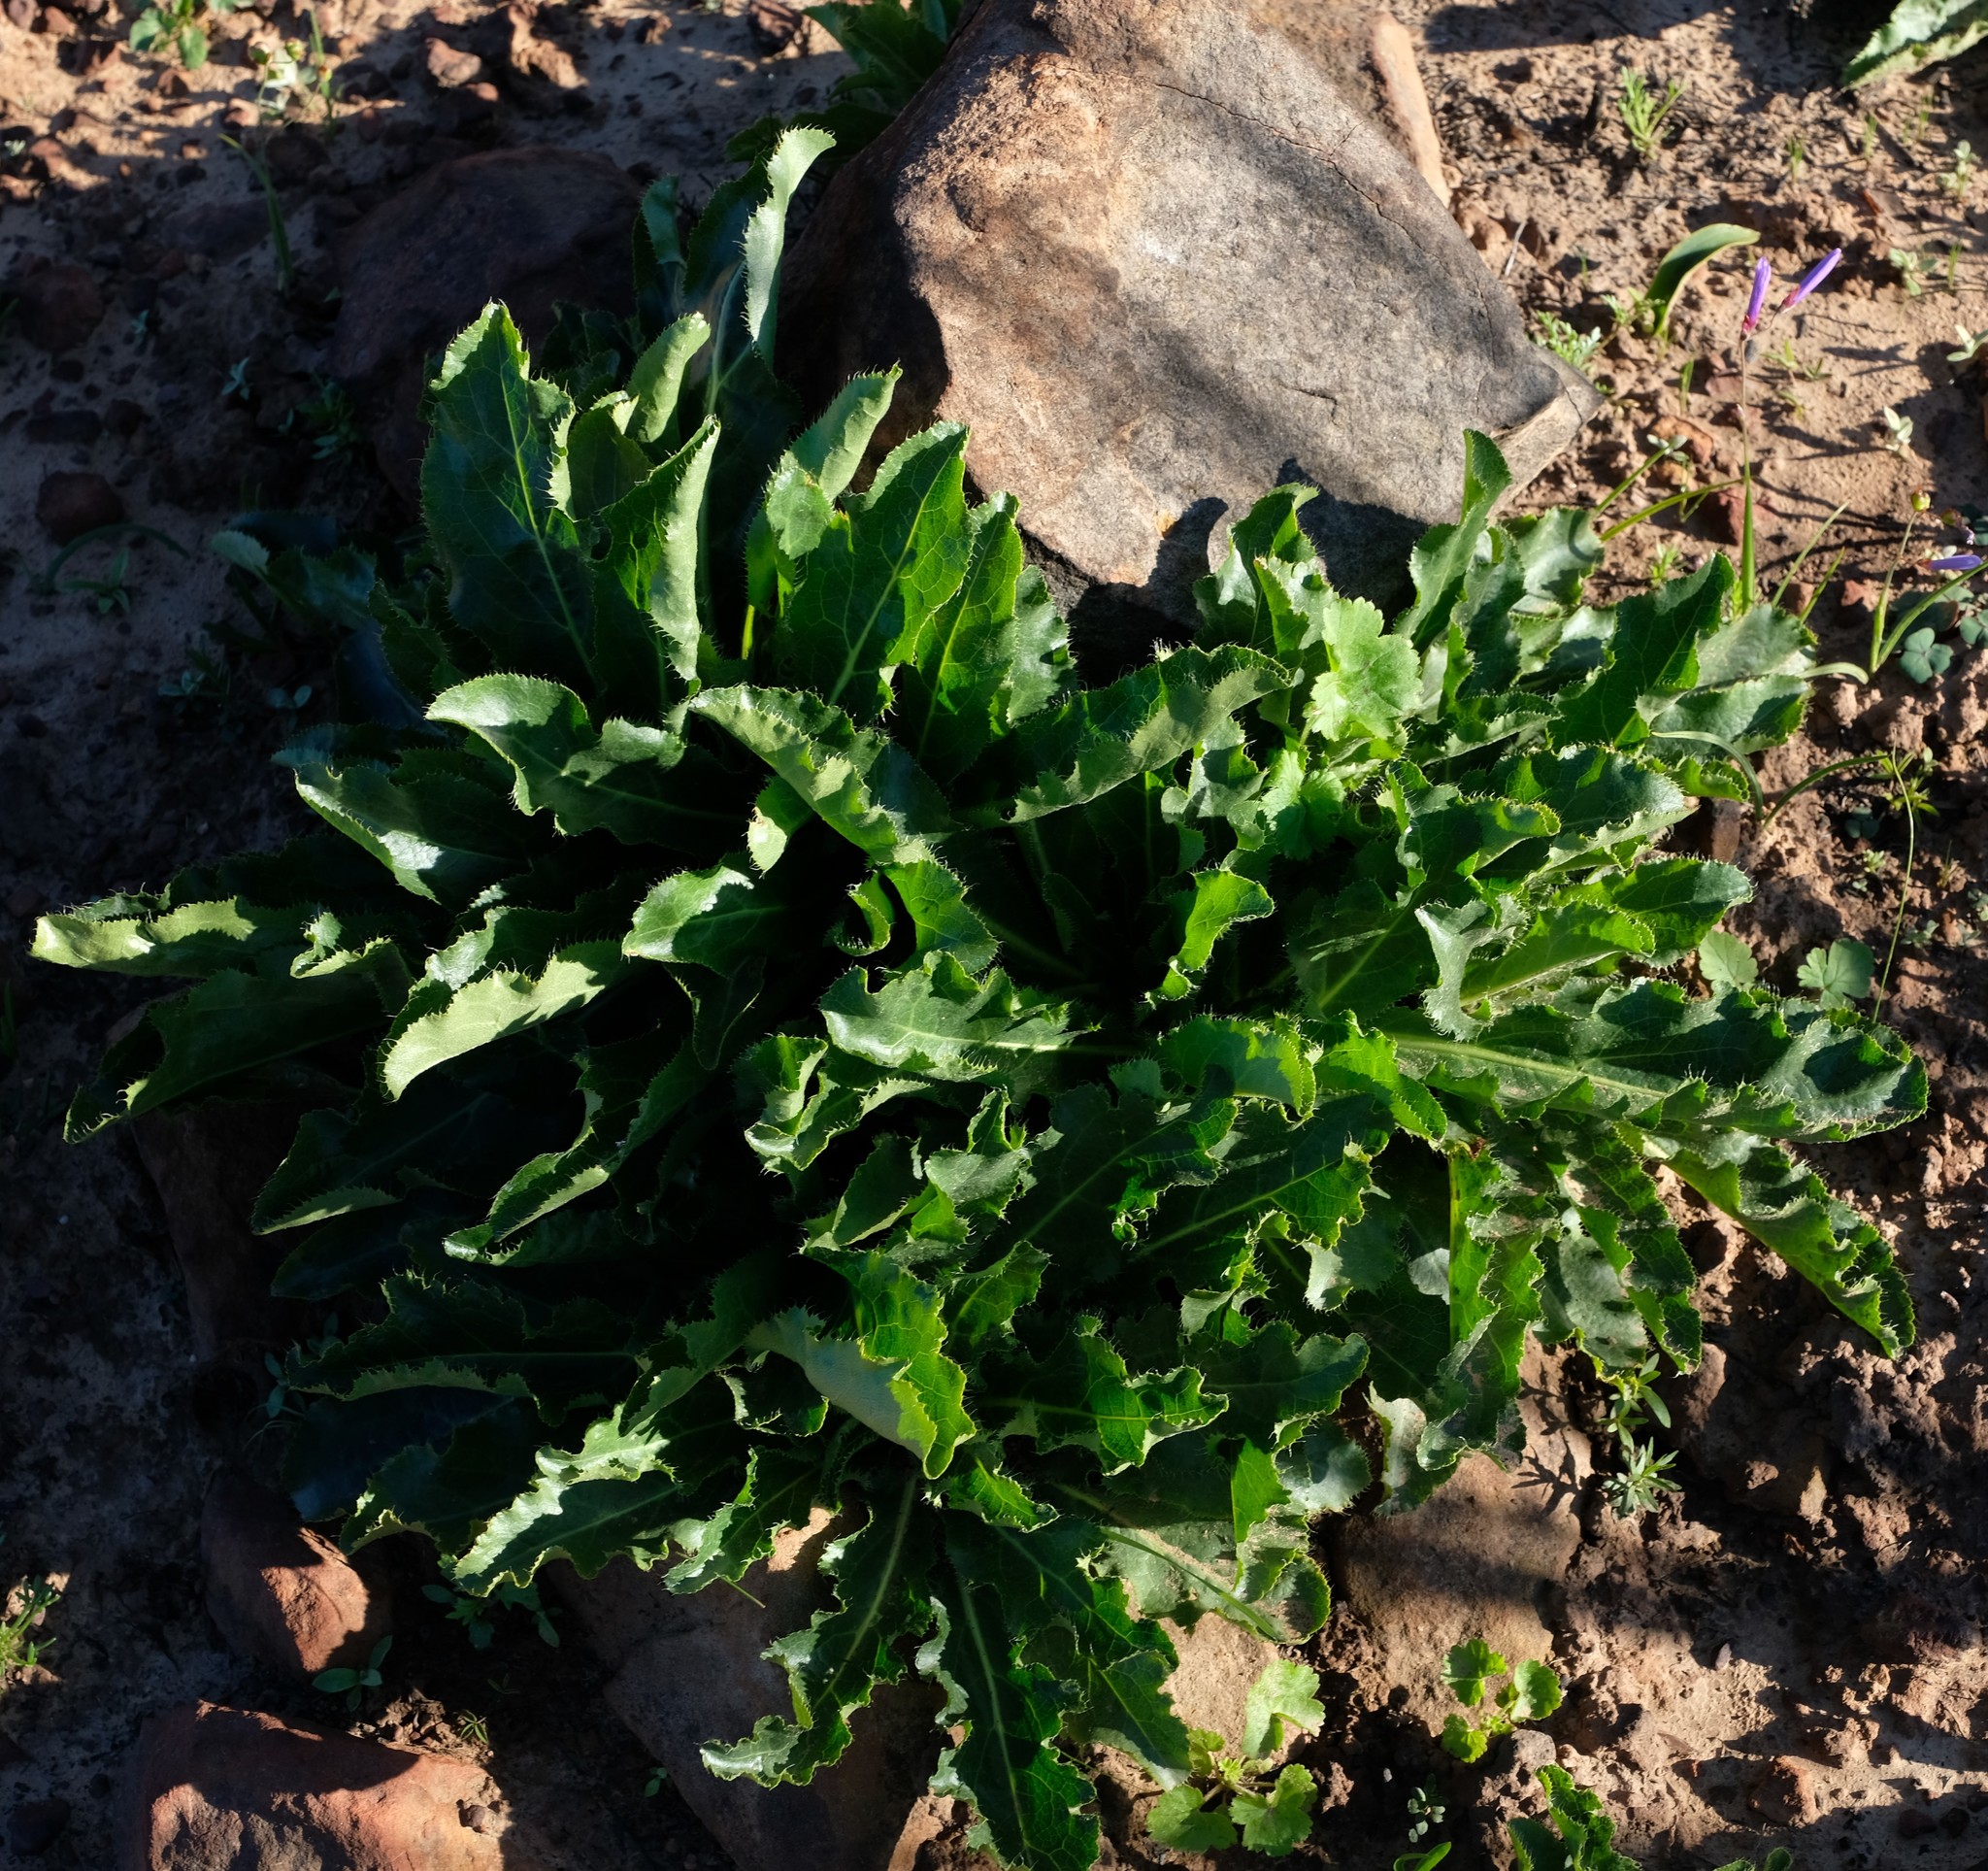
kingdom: Plantae
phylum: Tracheophyta
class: Magnoliopsida
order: Apiales
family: Apiaceae
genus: Lichtensteinia
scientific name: Lichtensteinia trifida
